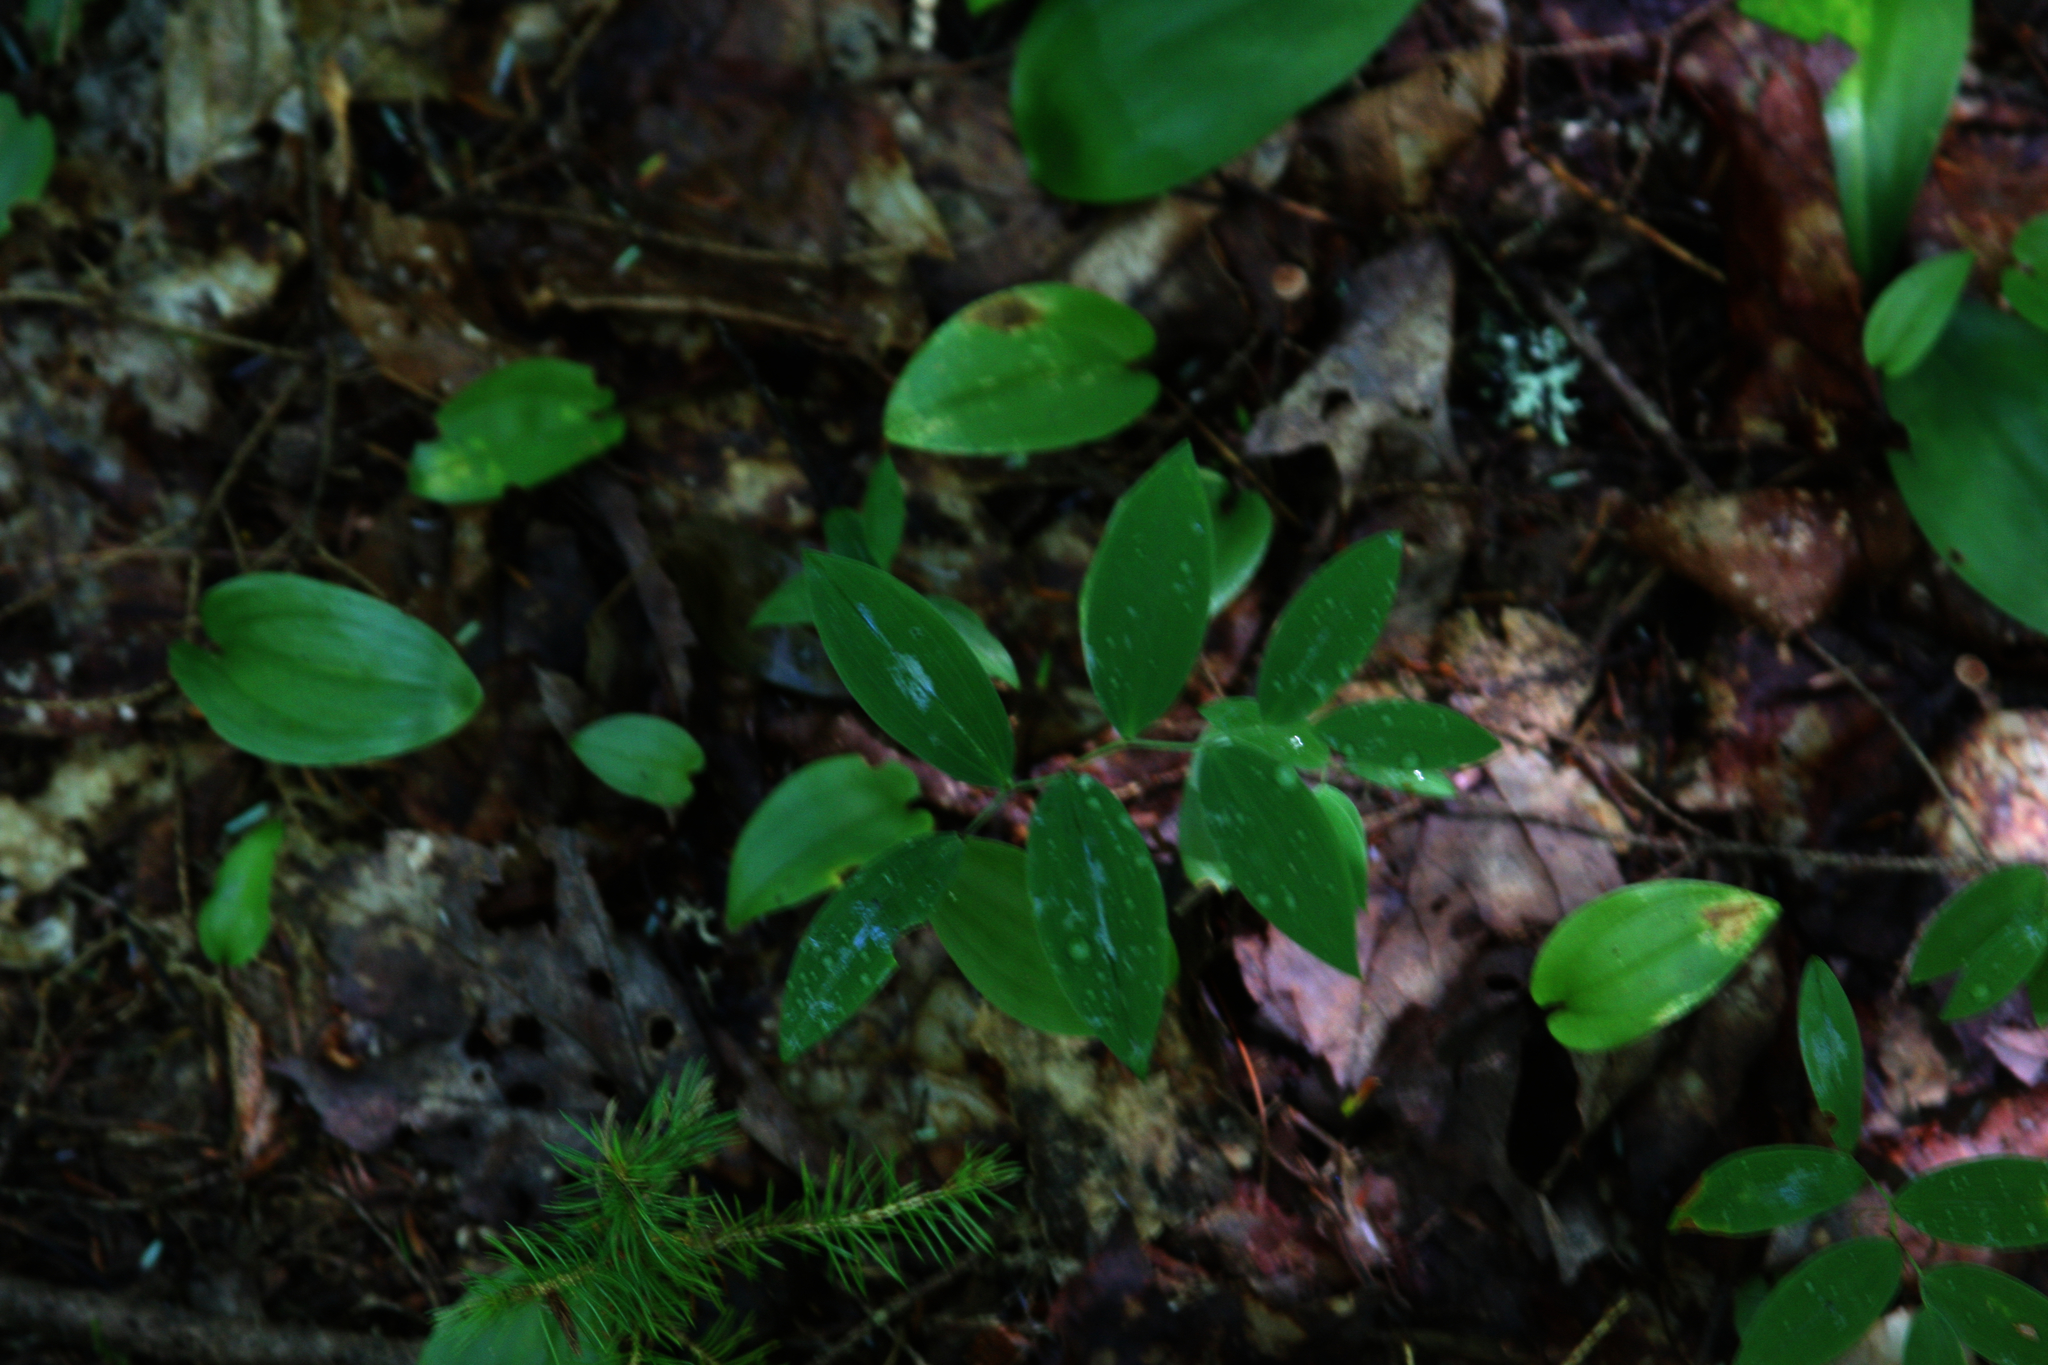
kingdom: Plantae
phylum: Tracheophyta
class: Liliopsida
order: Liliales
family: Colchicaceae
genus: Uvularia
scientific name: Uvularia sessilifolia
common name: Straw-lily
